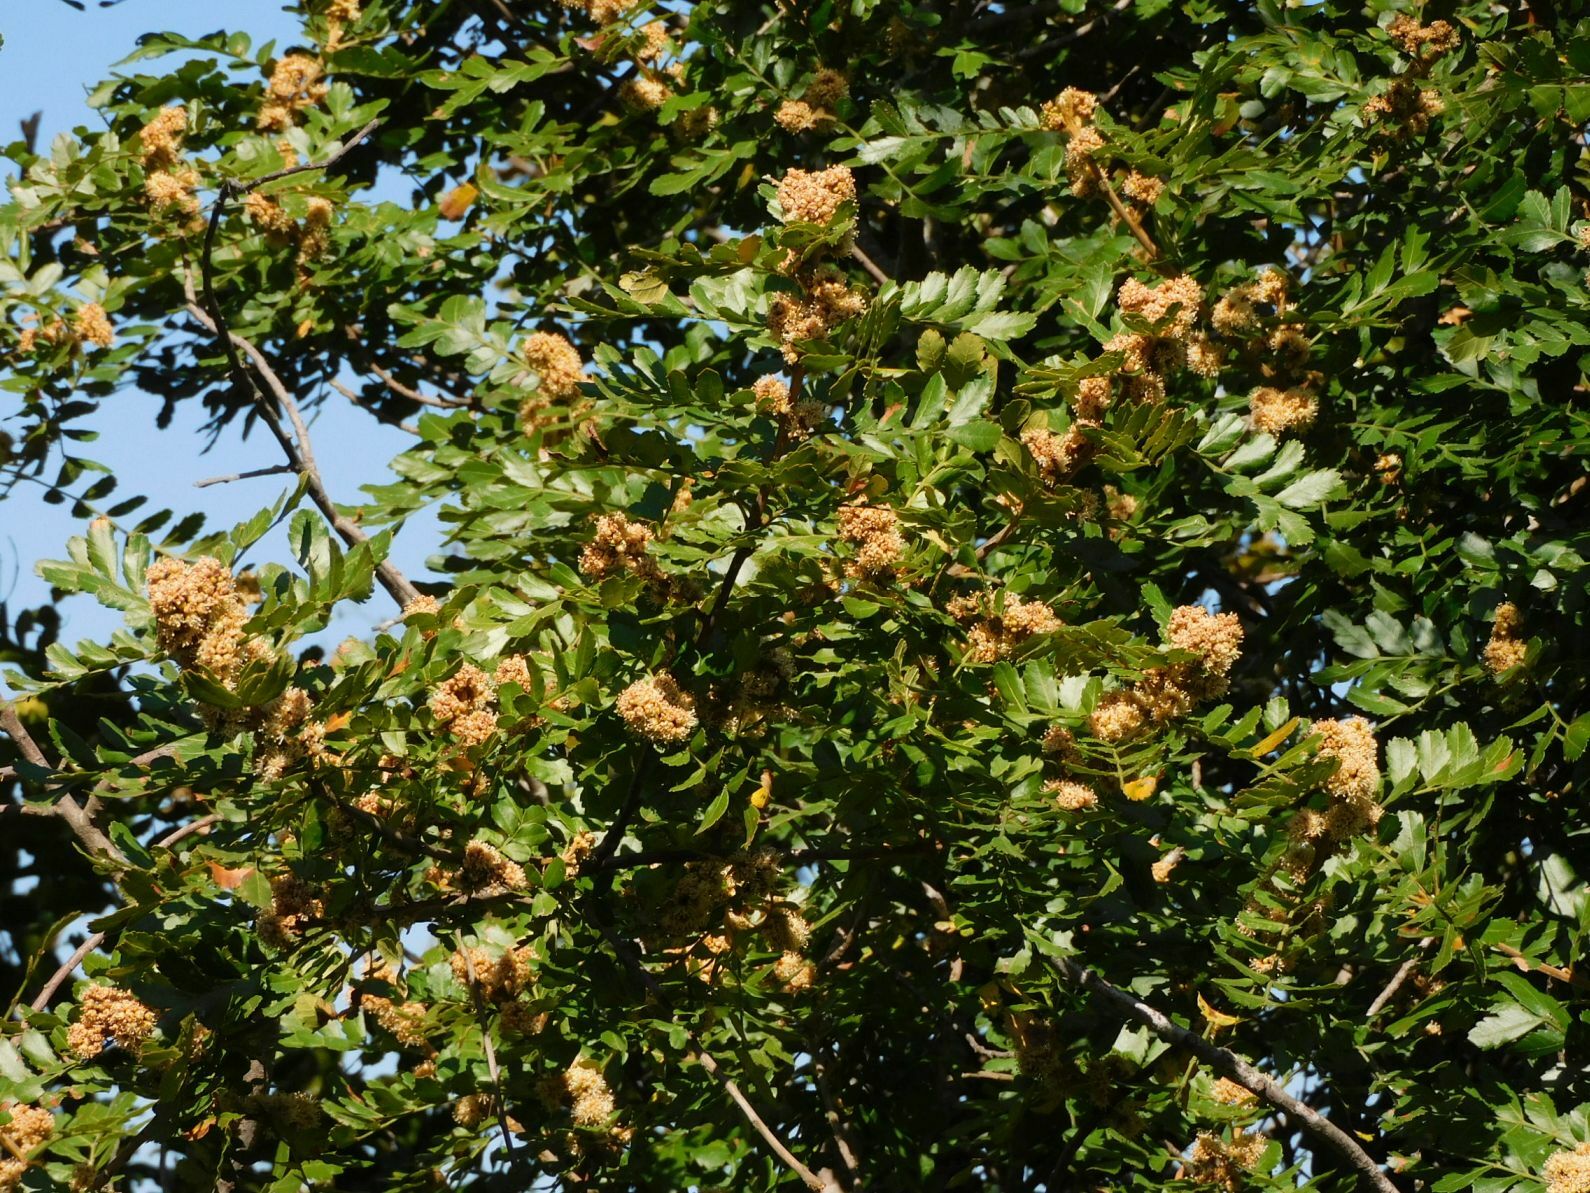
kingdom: Plantae
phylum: Tracheophyta
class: Magnoliopsida
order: Sapindales
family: Sapindaceae
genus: Hippobromus
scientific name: Hippobromus pauciflorus
